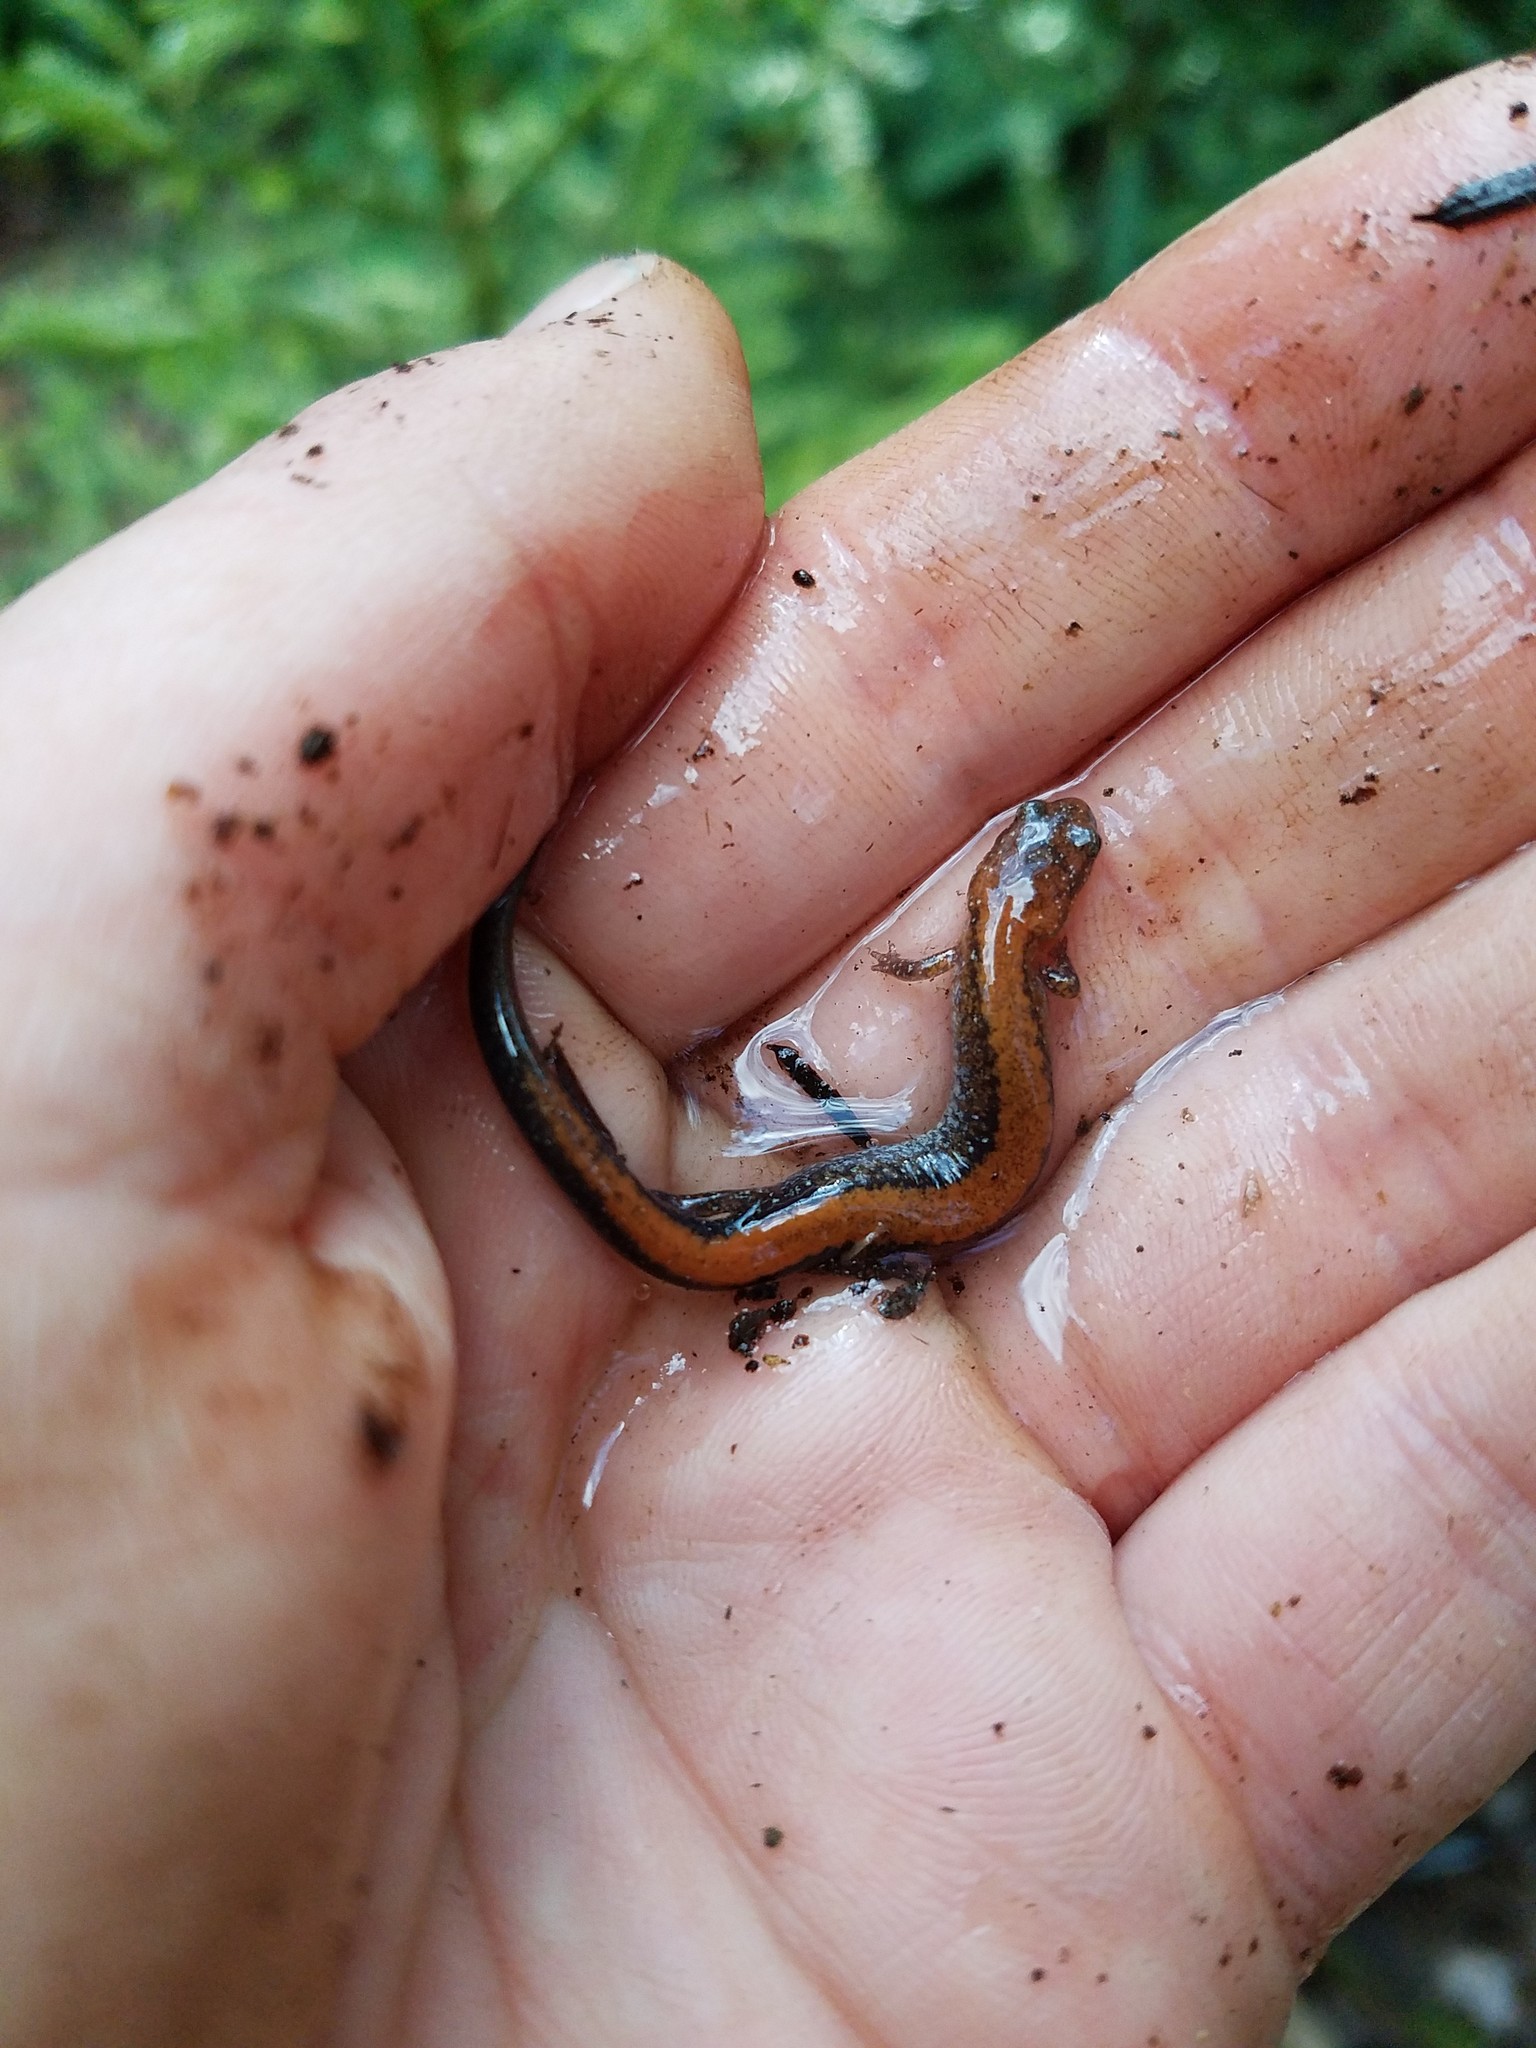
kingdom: Animalia
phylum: Chordata
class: Amphibia
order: Caudata
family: Plethodontidae
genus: Plethodon
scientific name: Plethodon cinereus
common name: Redback salamander
